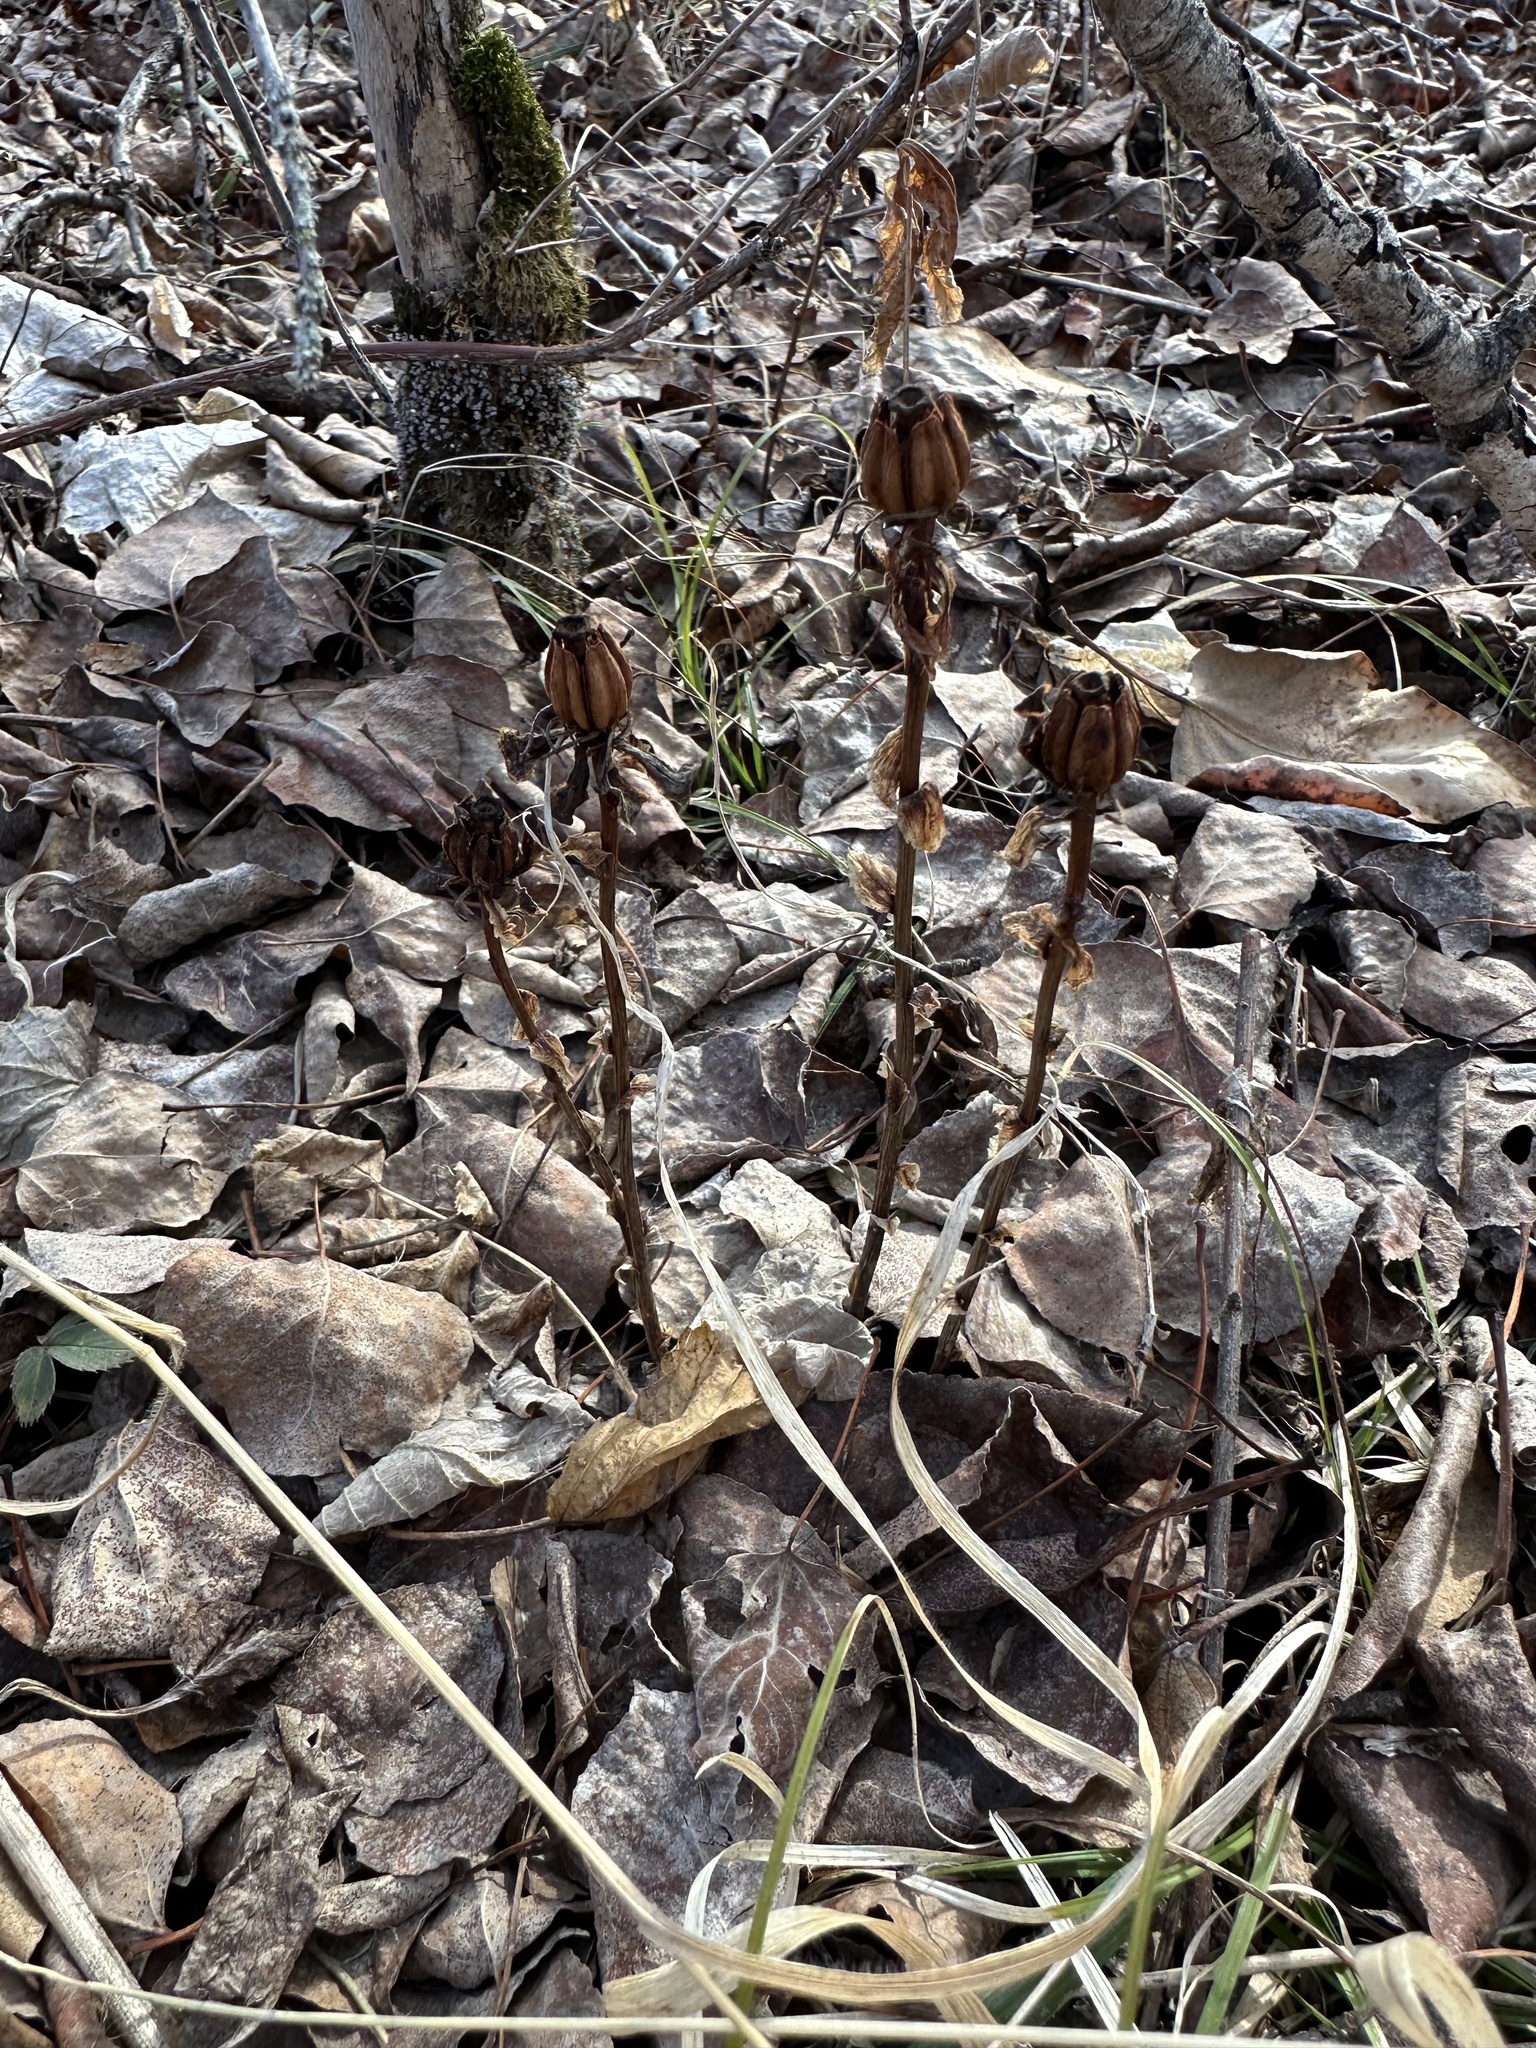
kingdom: Plantae
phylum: Tracheophyta
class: Magnoliopsida
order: Ericales
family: Ericaceae
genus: Monotropa
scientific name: Monotropa uniflora
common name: Convulsion root
